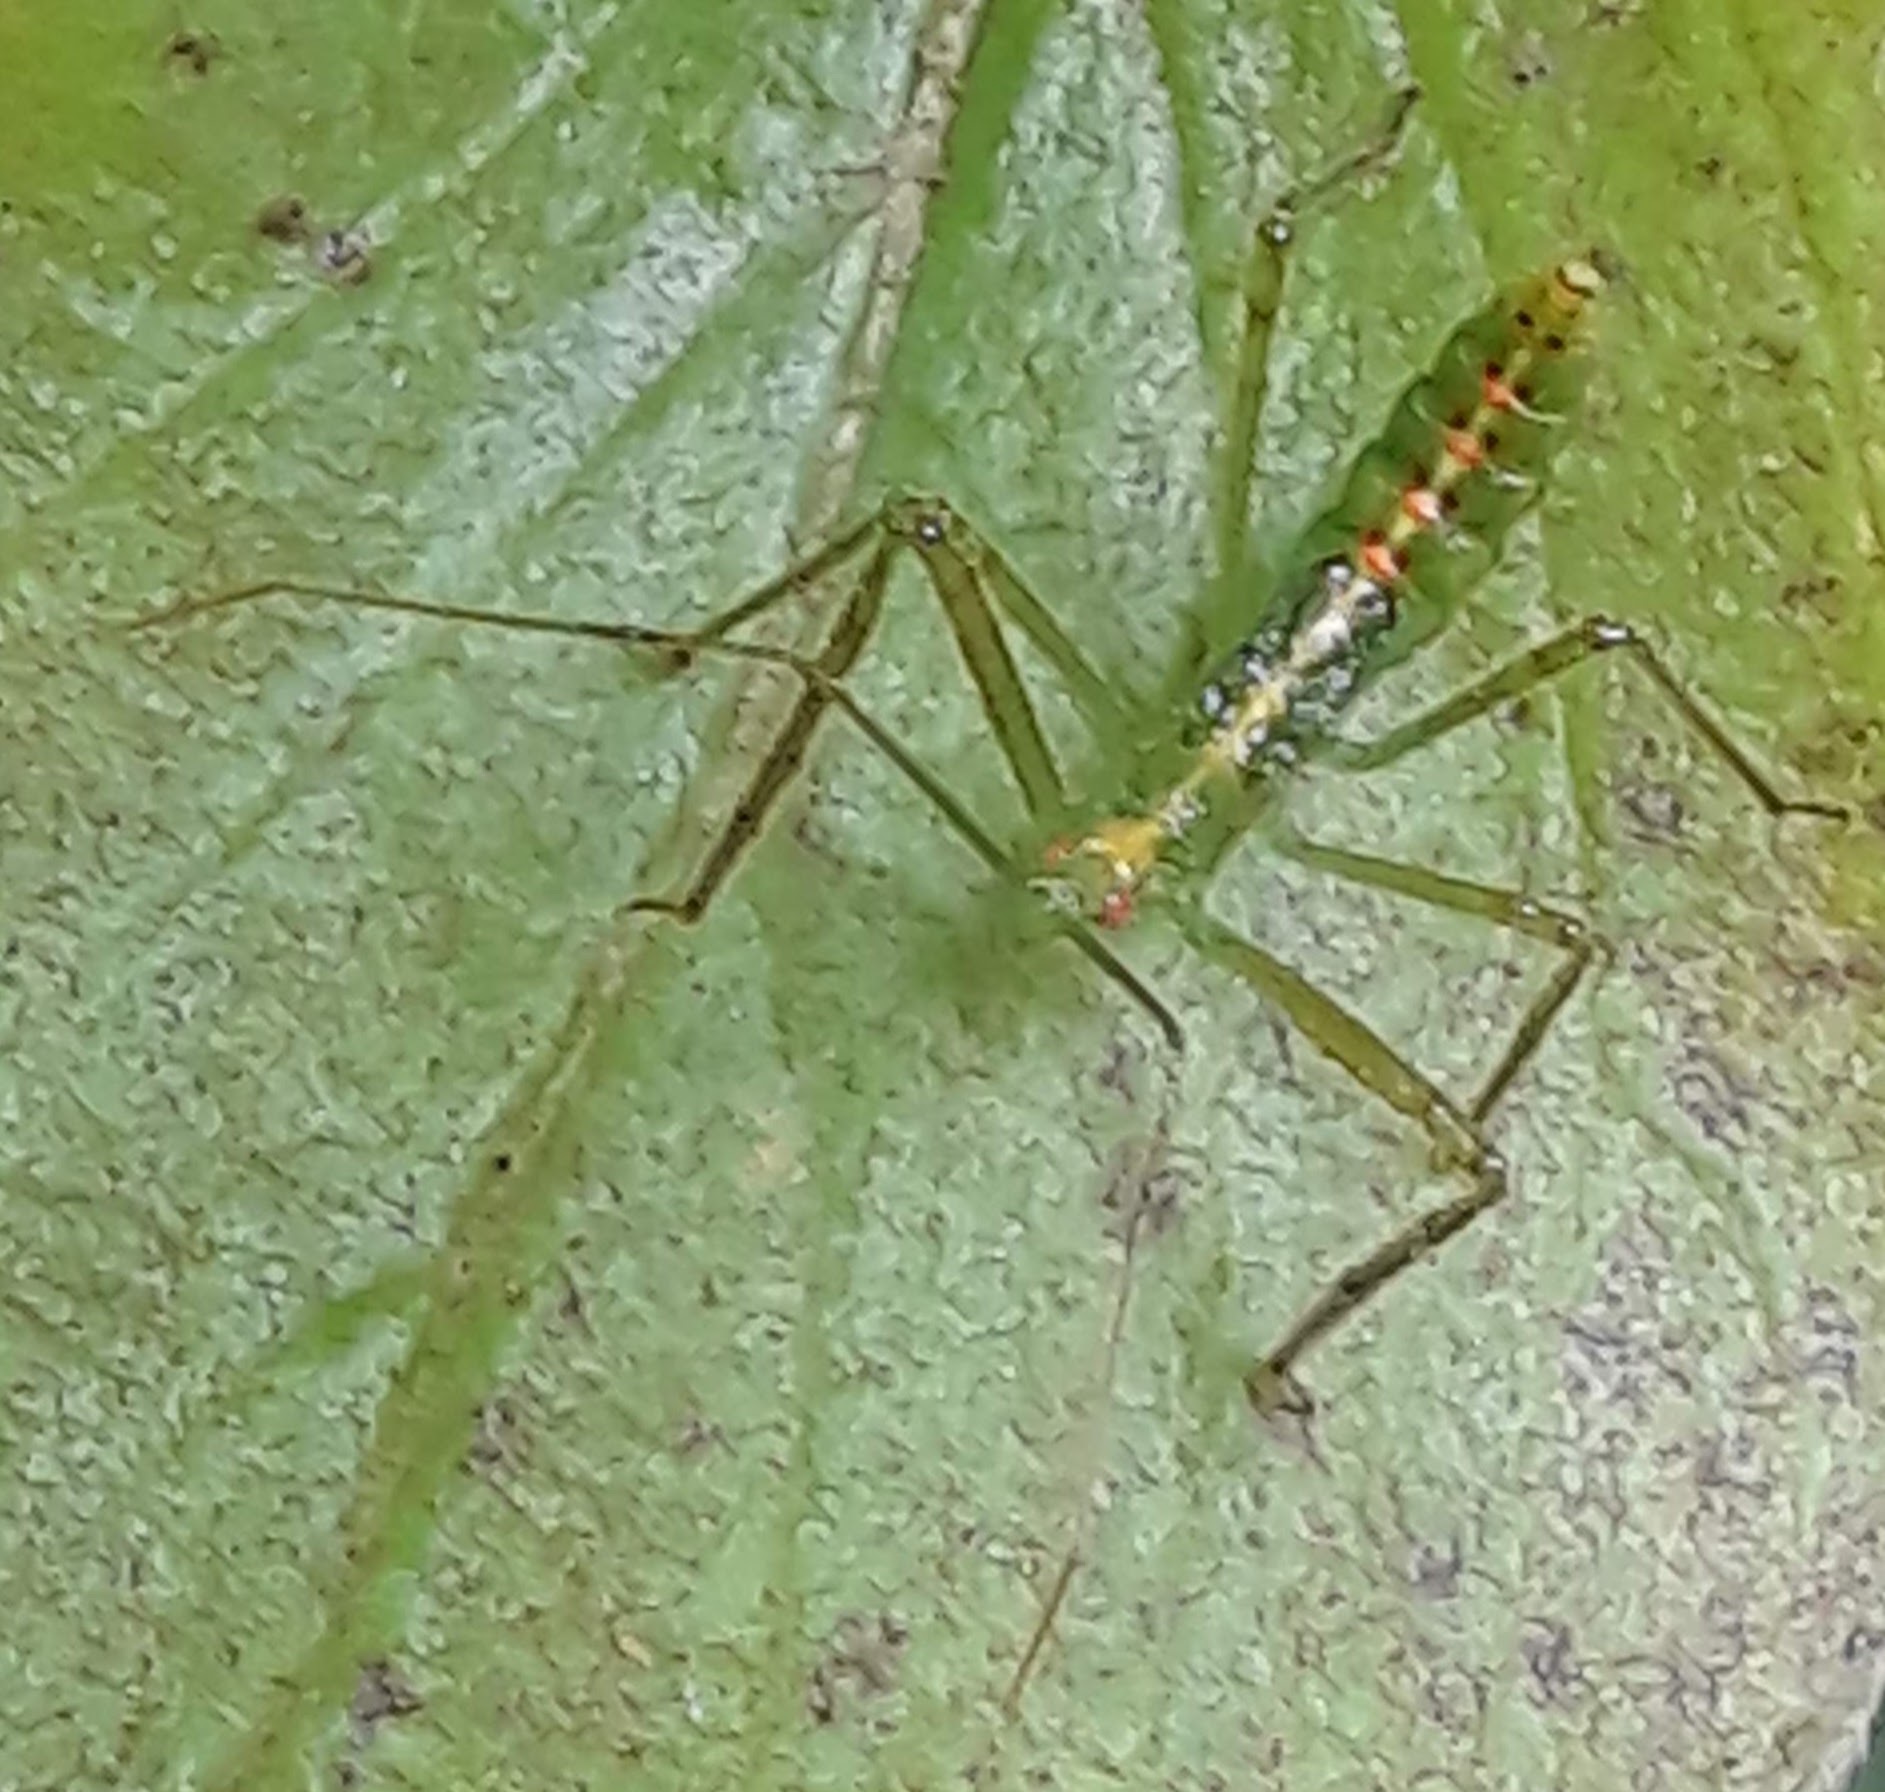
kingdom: Animalia
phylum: Arthropoda
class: Insecta
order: Hemiptera
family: Reduviidae
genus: Zelus
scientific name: Zelus luridus
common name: Pale green assassin bug
